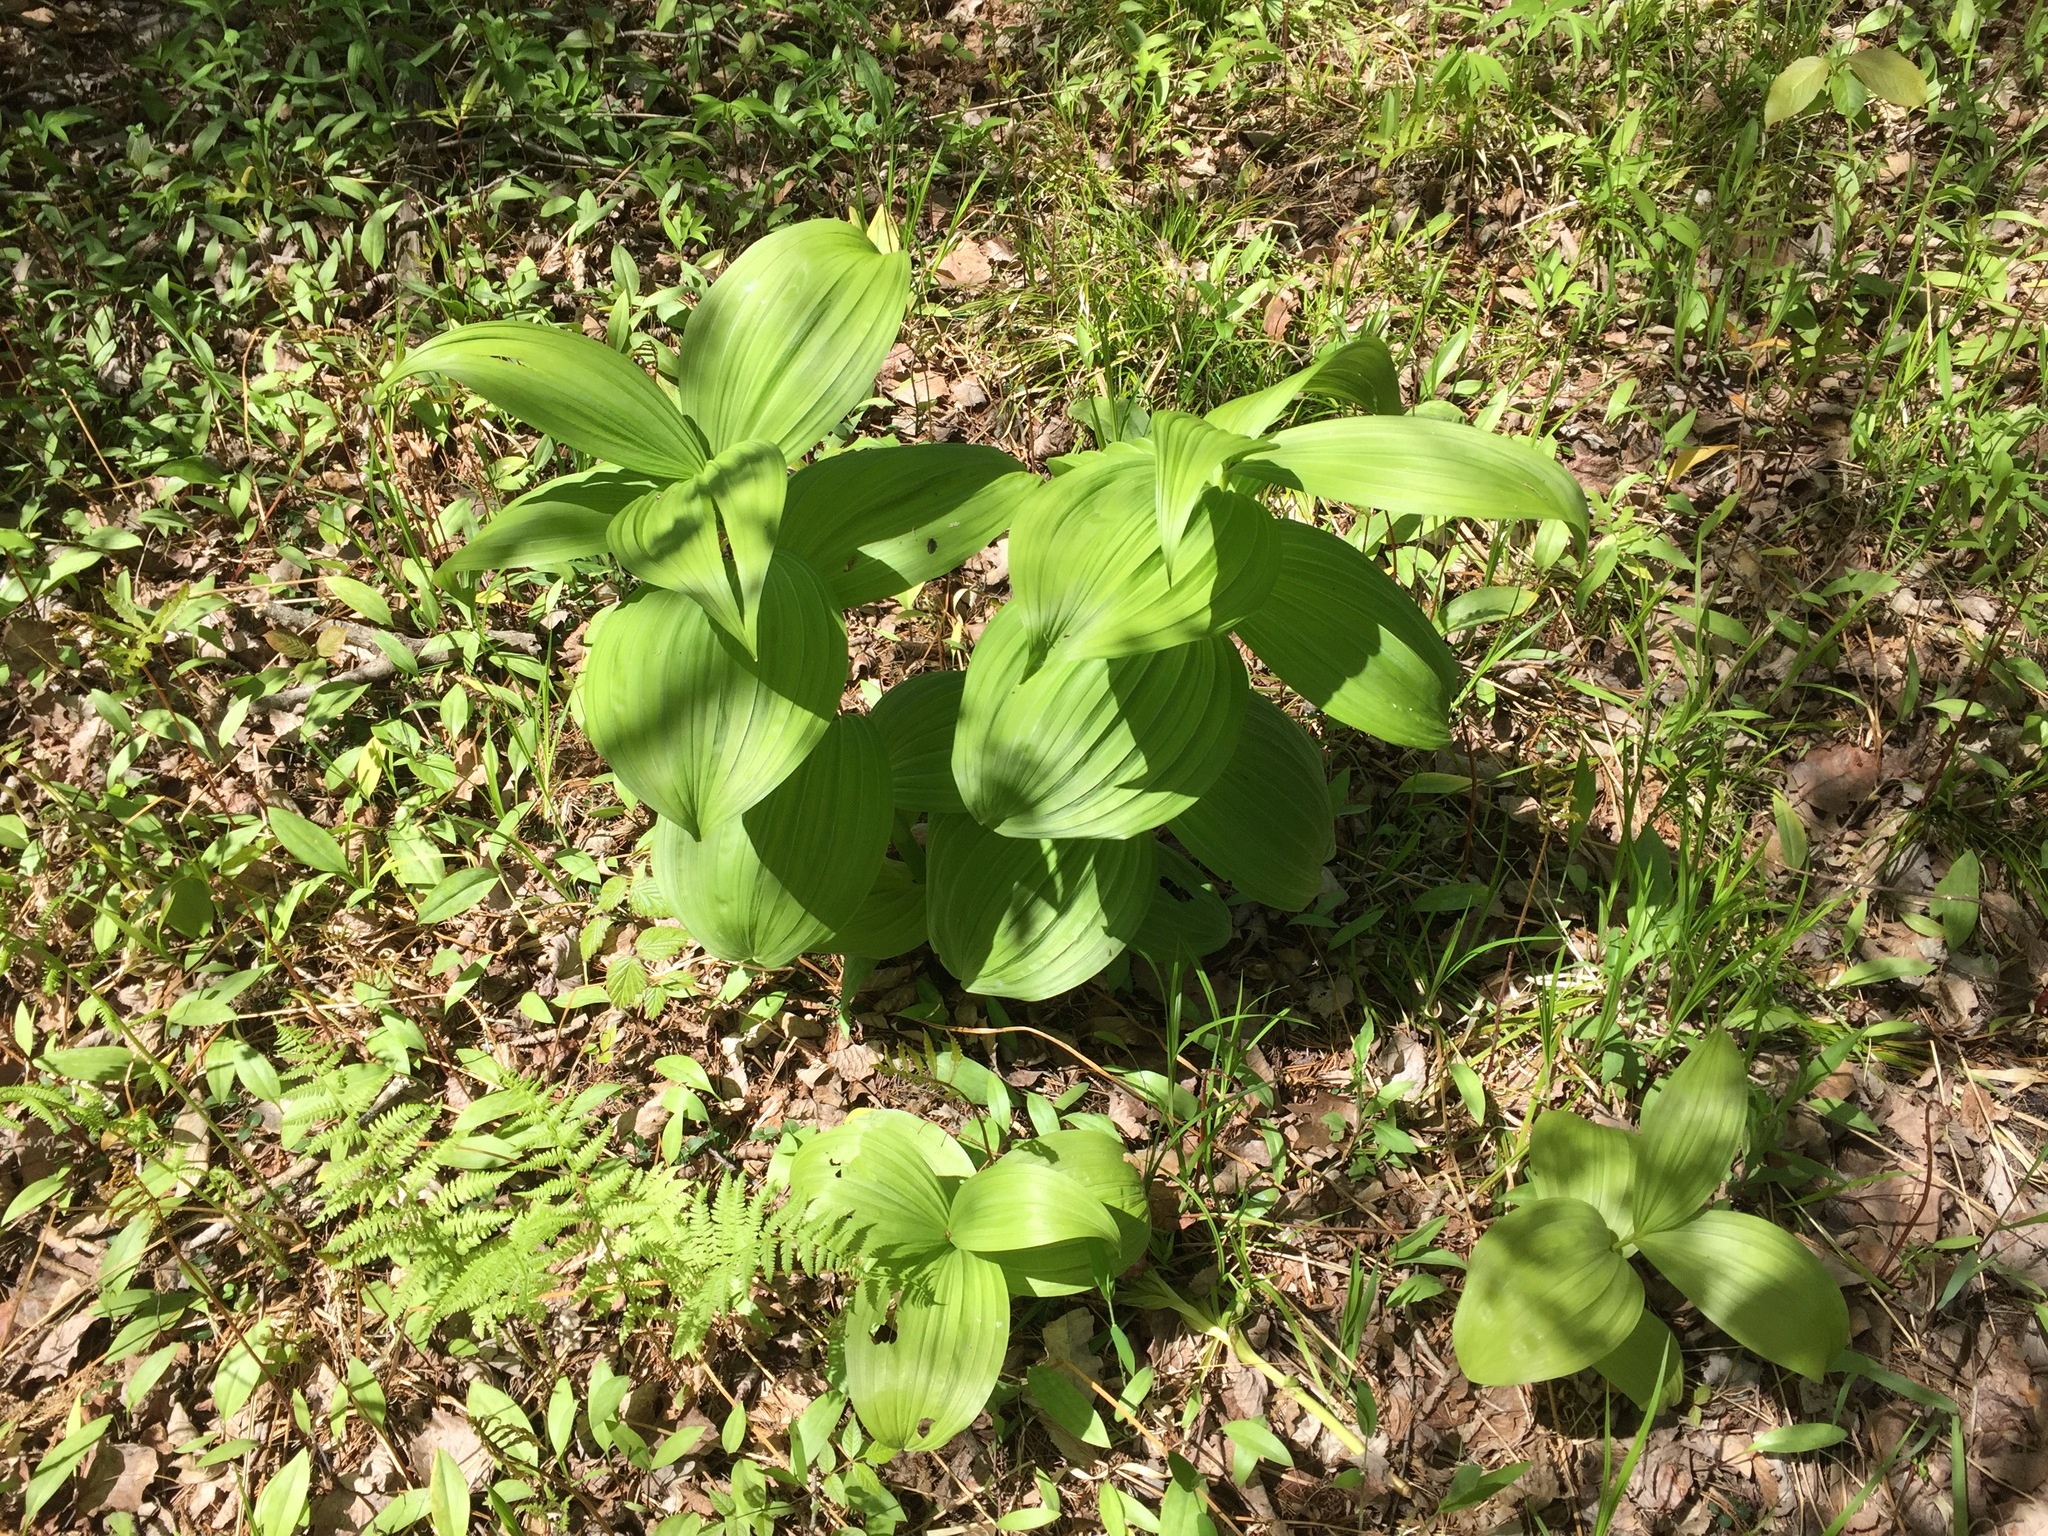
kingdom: Plantae
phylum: Tracheophyta
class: Liliopsida
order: Liliales
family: Melanthiaceae
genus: Veratrum
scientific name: Veratrum viride
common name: American false hellebore
